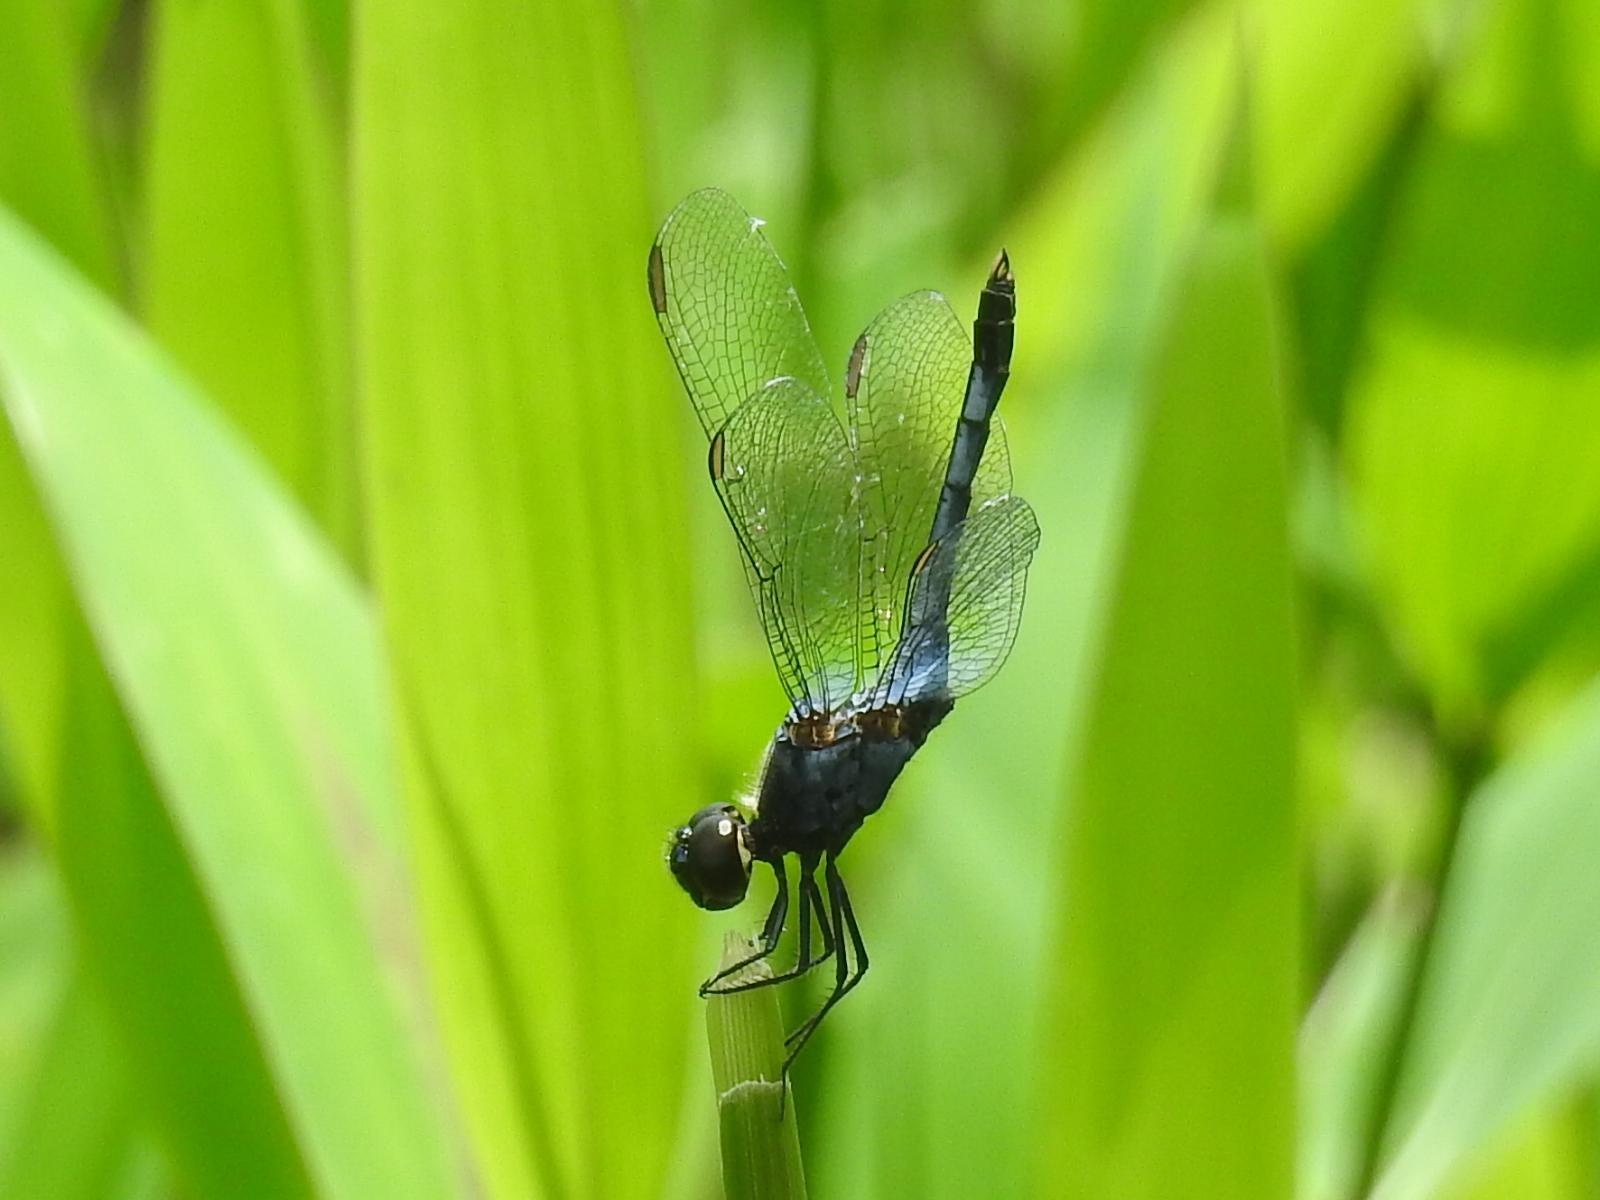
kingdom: Animalia
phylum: Arthropoda
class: Insecta
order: Odonata
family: Libellulidae
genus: Erythrodiplax
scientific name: Erythrodiplax kimminsi
